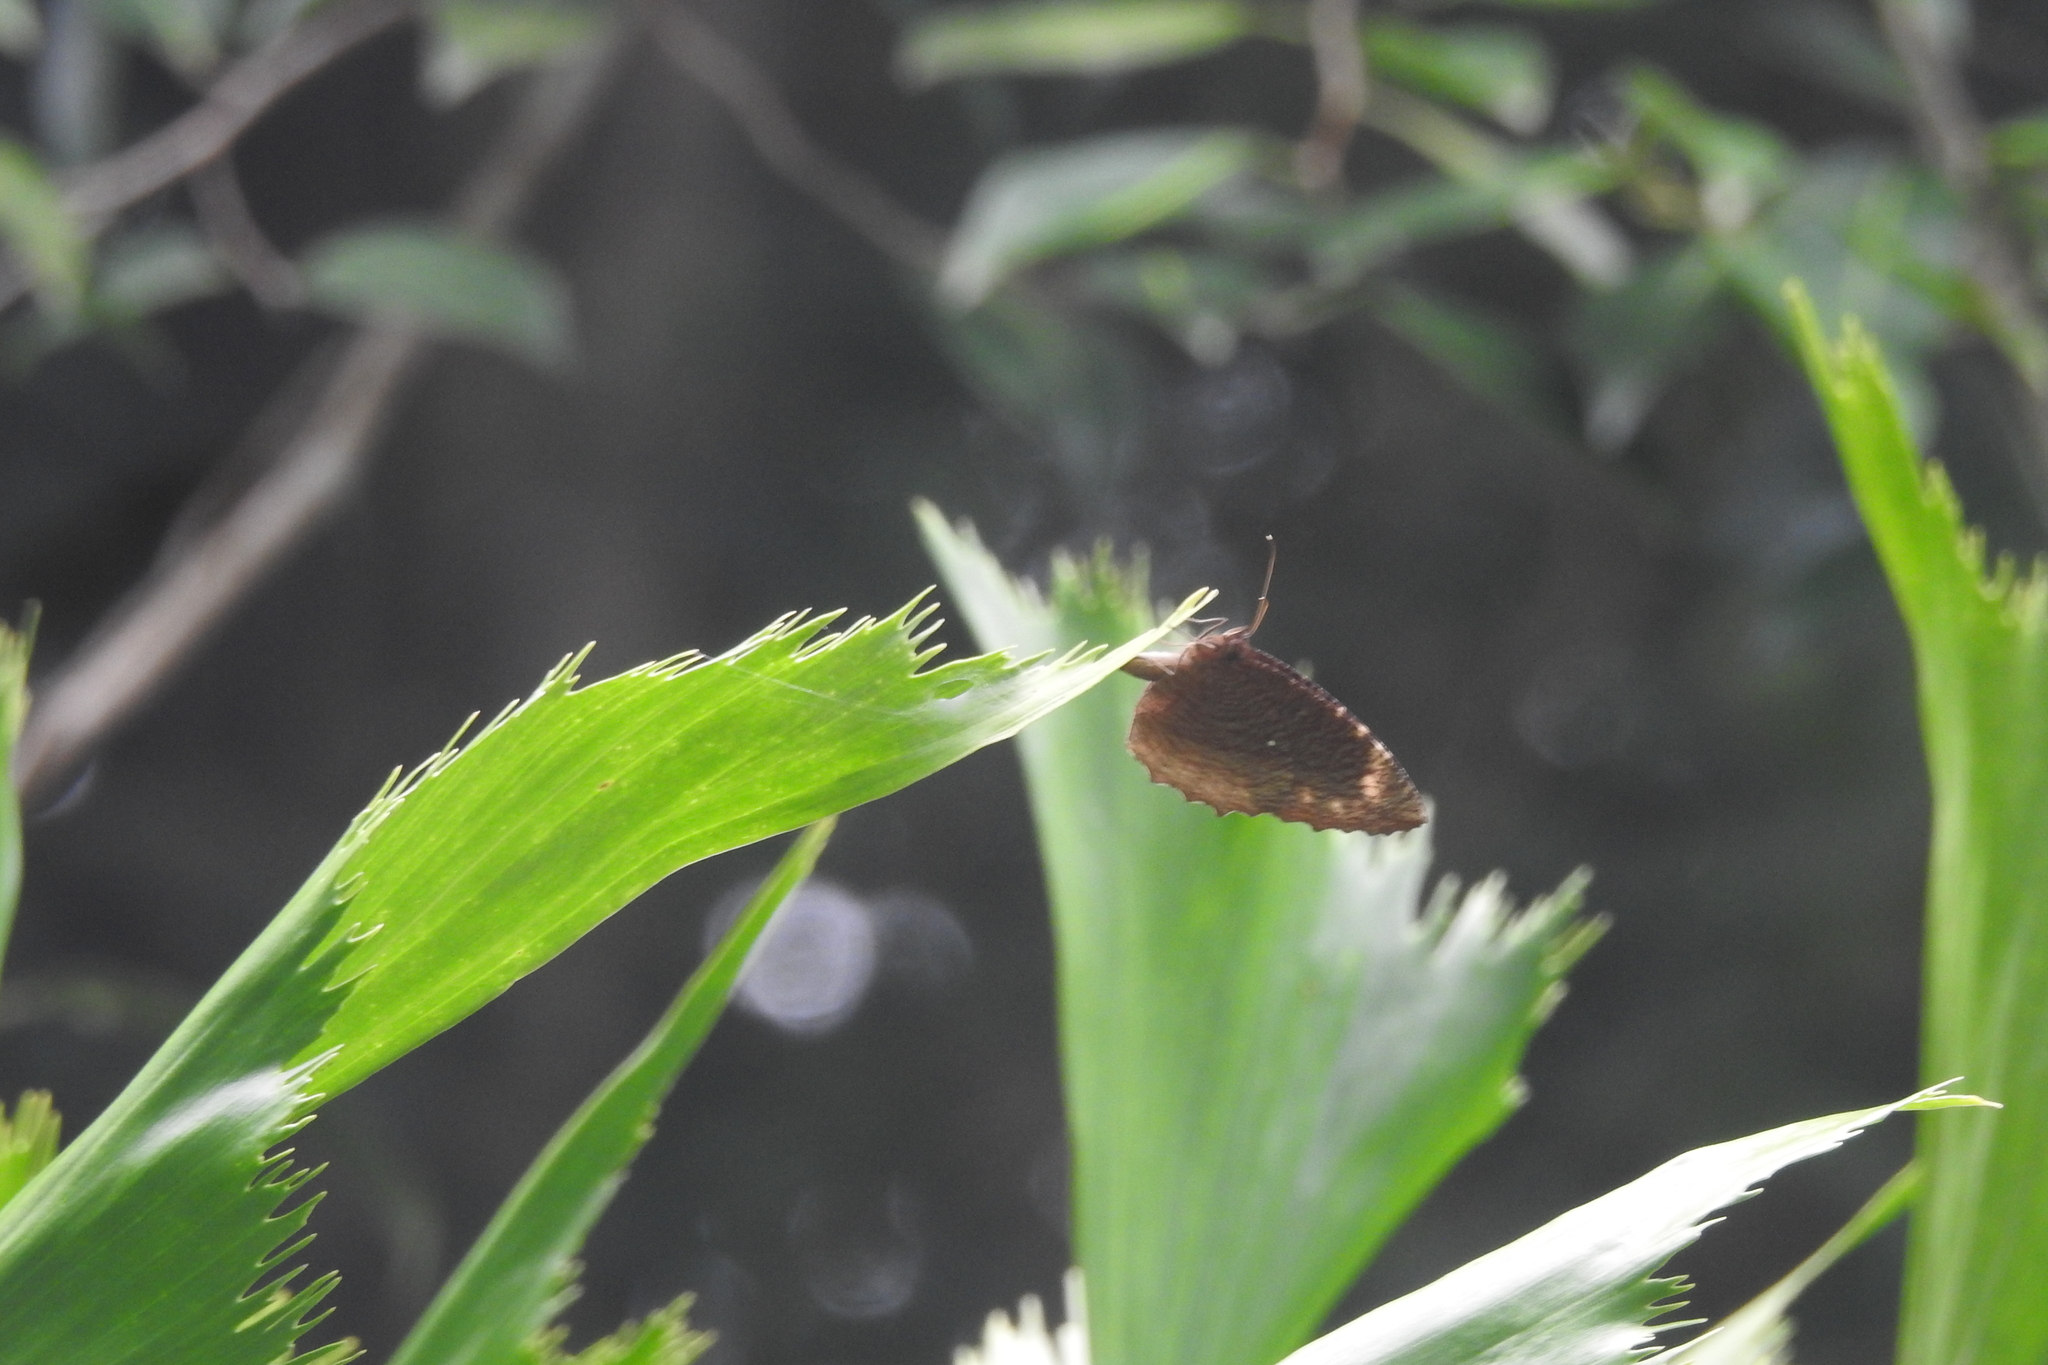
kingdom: Animalia
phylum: Arthropoda
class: Insecta
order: Lepidoptera
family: Nymphalidae
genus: Elymnias
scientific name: Elymnias hypermnestra
